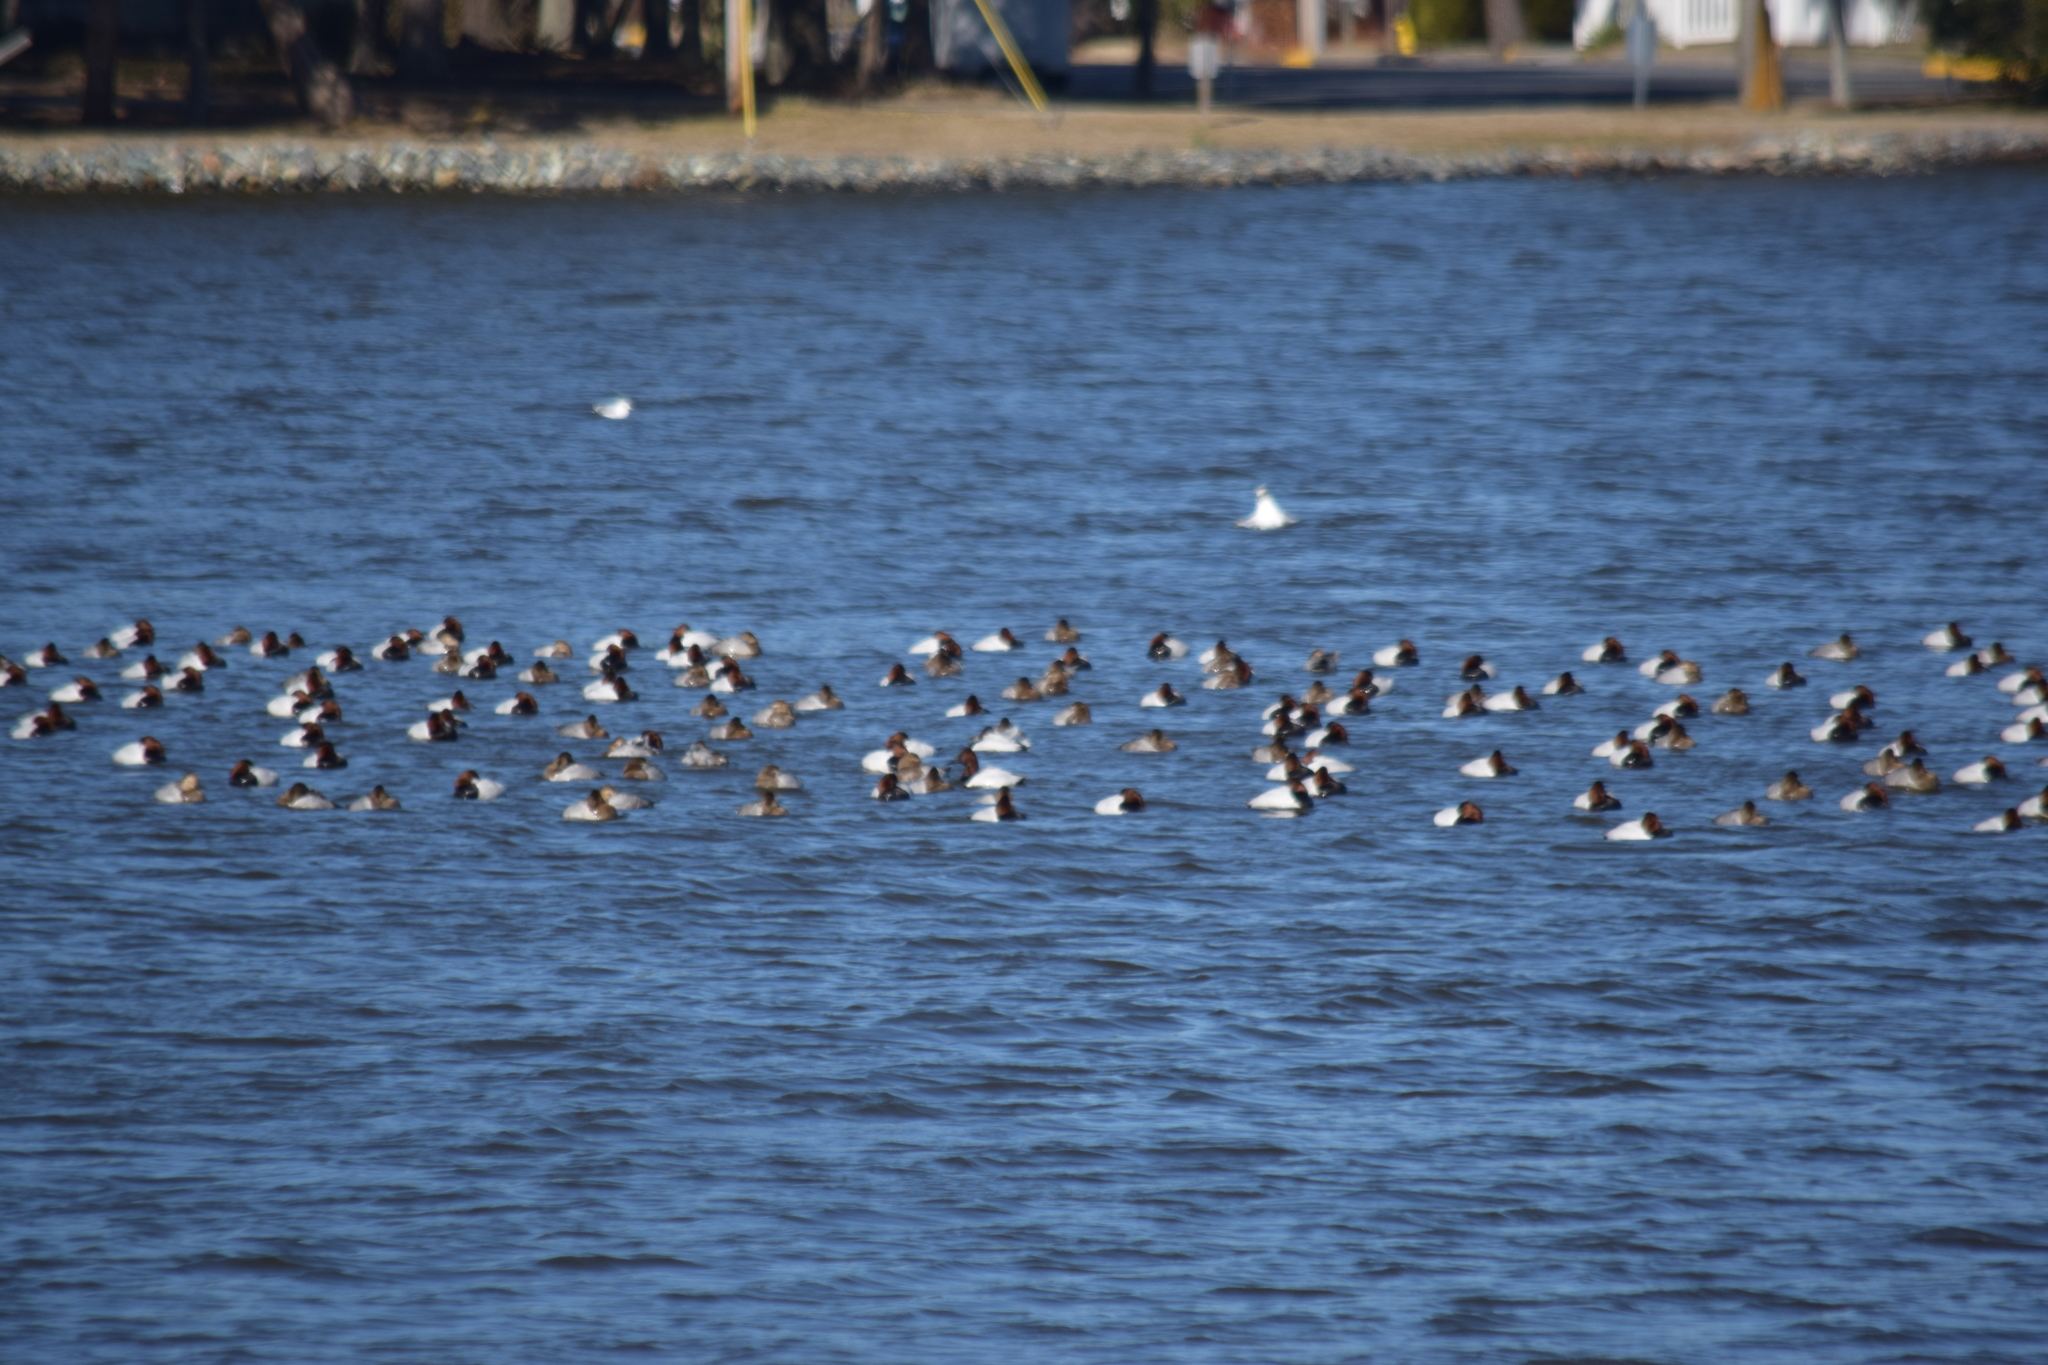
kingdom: Animalia
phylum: Chordata
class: Aves
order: Anseriformes
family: Anatidae
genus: Aythya
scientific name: Aythya valisineria
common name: Canvasback
